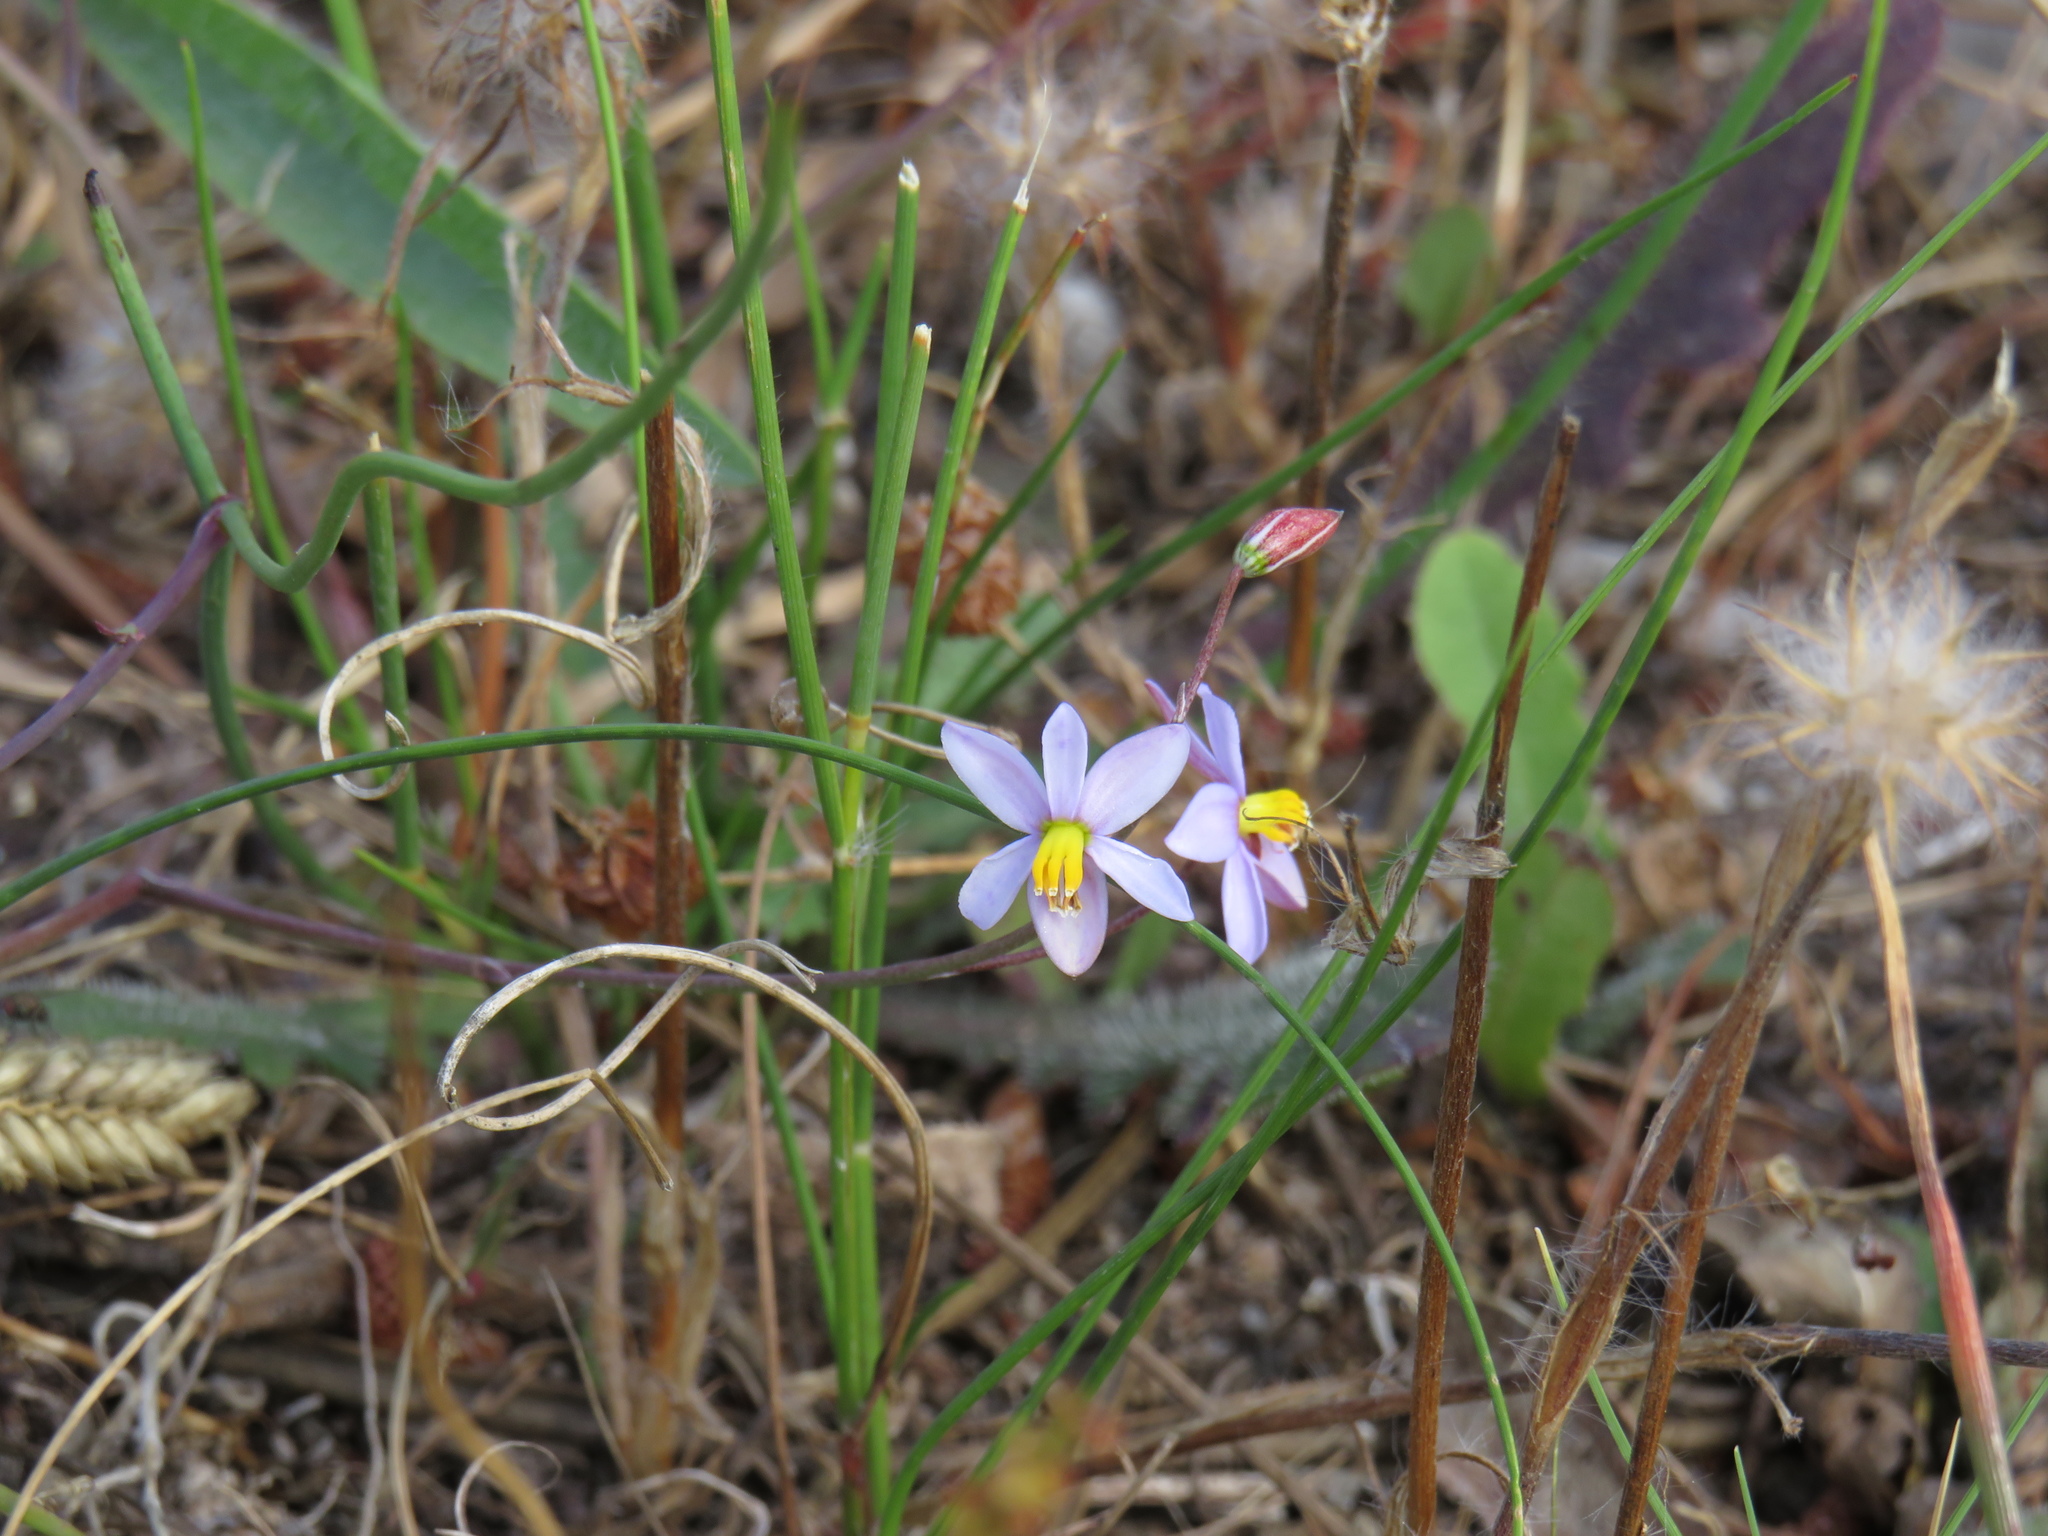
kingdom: Plantae
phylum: Tracheophyta
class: Liliopsida
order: Asparagales
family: Tecophilaeaceae
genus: Cyanella
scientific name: Cyanella hyacinthoides
